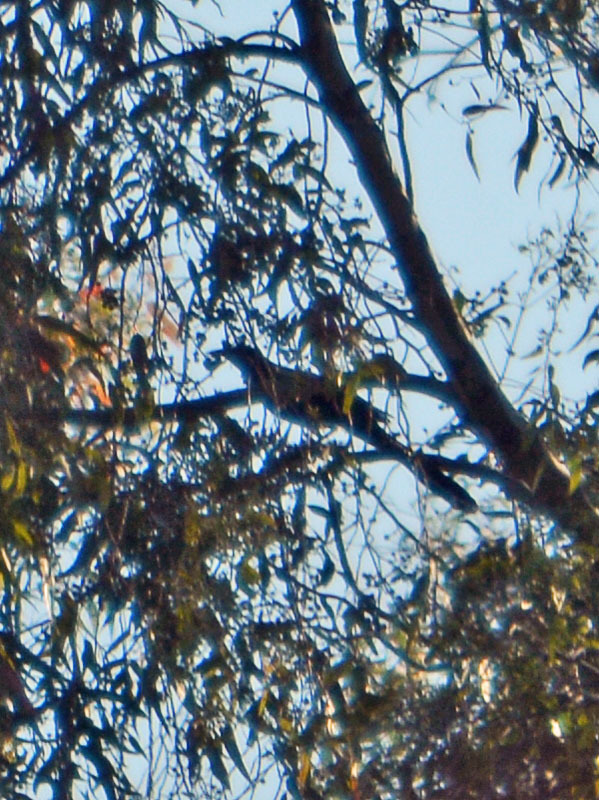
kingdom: Animalia
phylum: Chordata
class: Aves
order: Passeriformes
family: Icteridae
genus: Quiscalus
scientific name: Quiscalus mexicanus
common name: Great-tailed grackle
